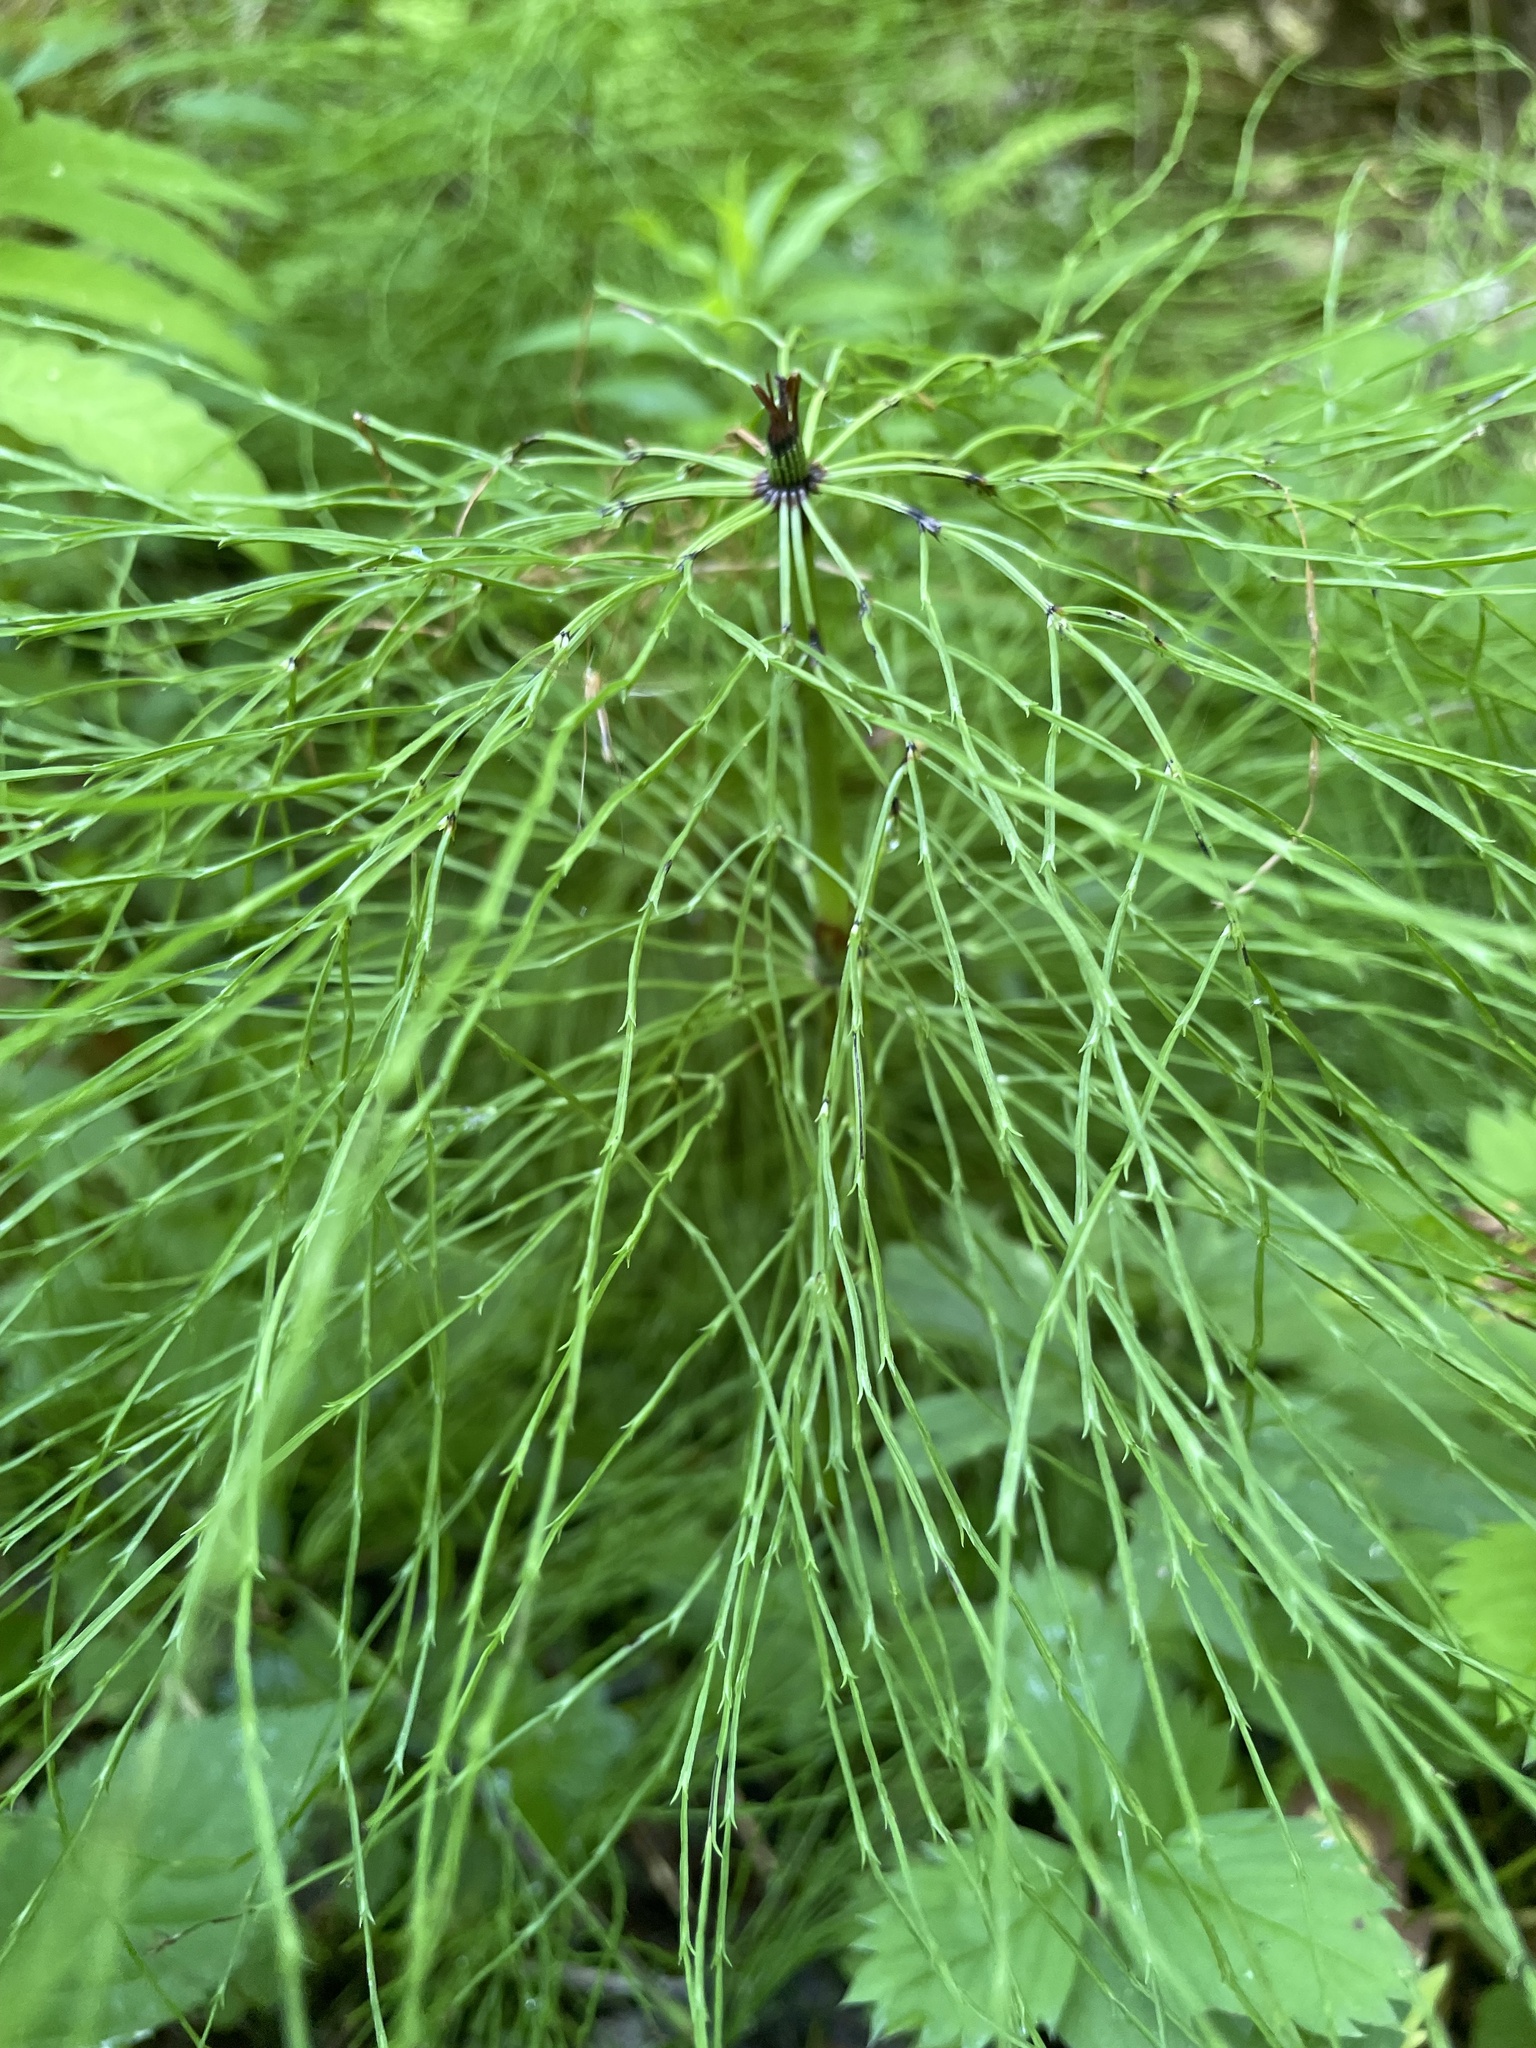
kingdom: Plantae
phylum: Tracheophyta
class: Polypodiopsida
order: Equisetales
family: Equisetaceae
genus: Equisetum
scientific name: Equisetum sylvaticum
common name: Wood horsetail
